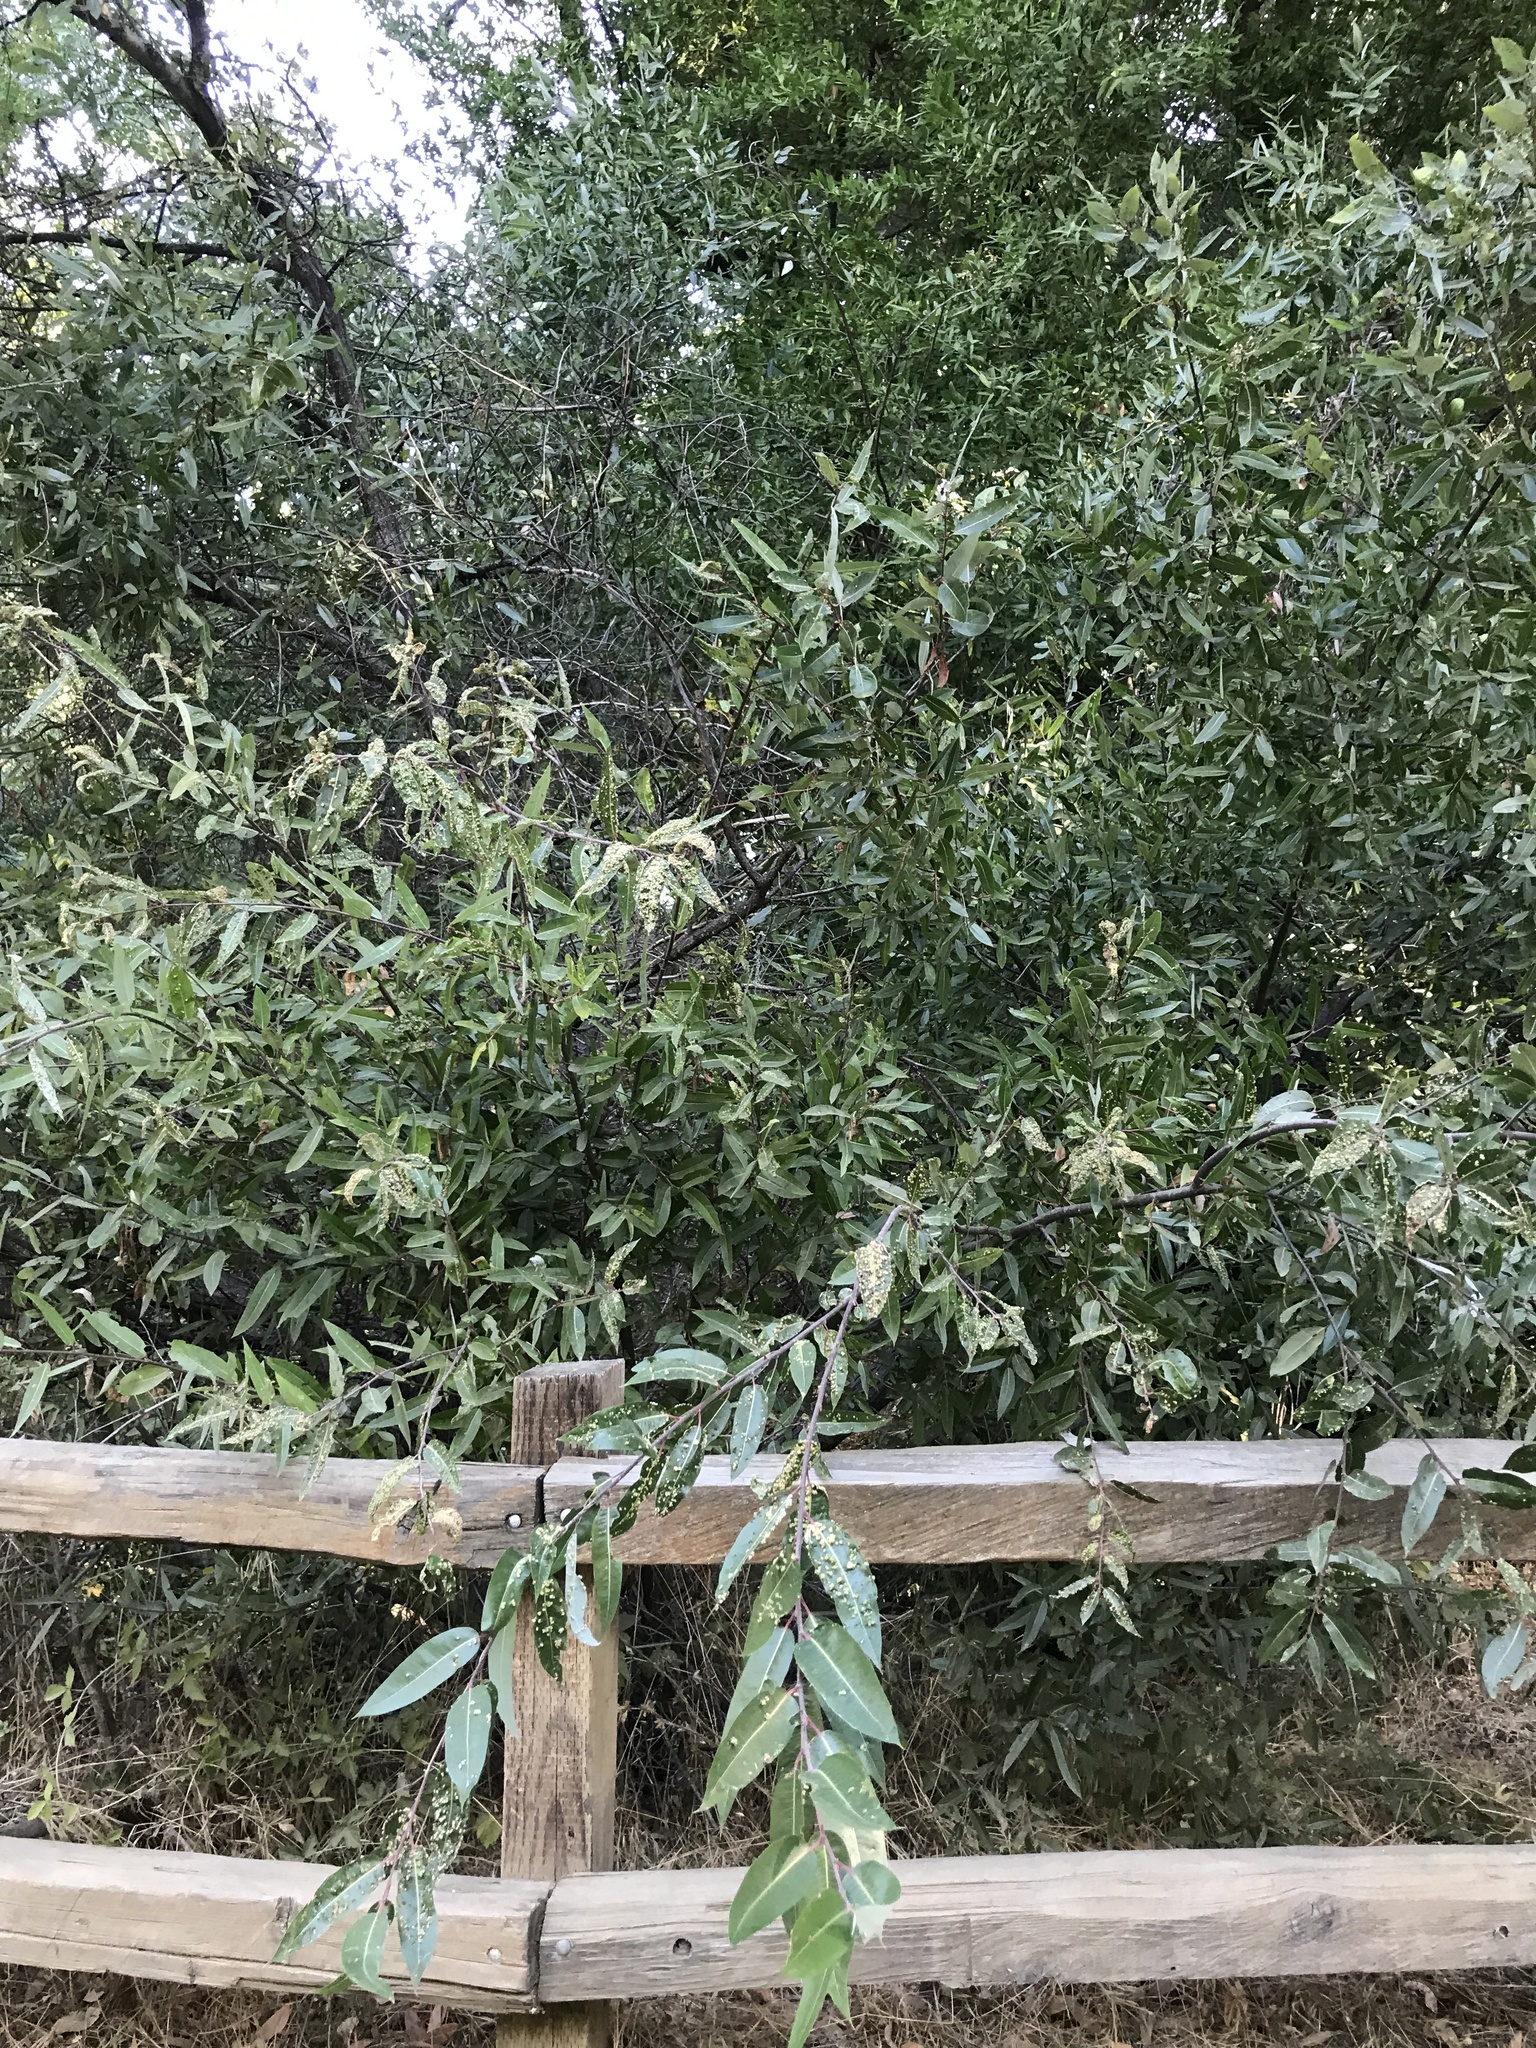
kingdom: Animalia
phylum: Arthropoda
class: Arachnida
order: Trombidiformes
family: Eriophyidae
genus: Aculus
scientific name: Aculus tetanothrix
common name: Willow bead gall mite
